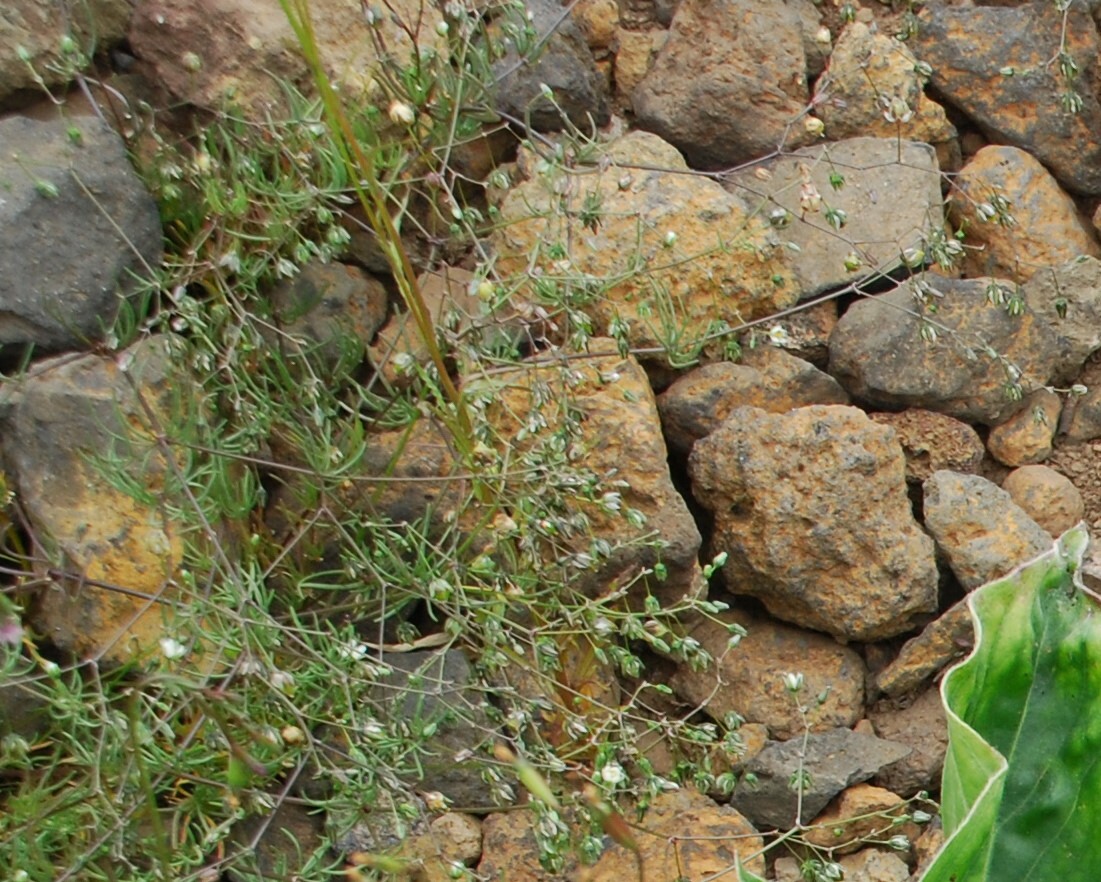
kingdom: Plantae
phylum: Tracheophyta
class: Magnoliopsida
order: Caryophyllales
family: Caryophyllaceae
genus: Spergula
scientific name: Spergula arvensis
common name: Corn spurrey
